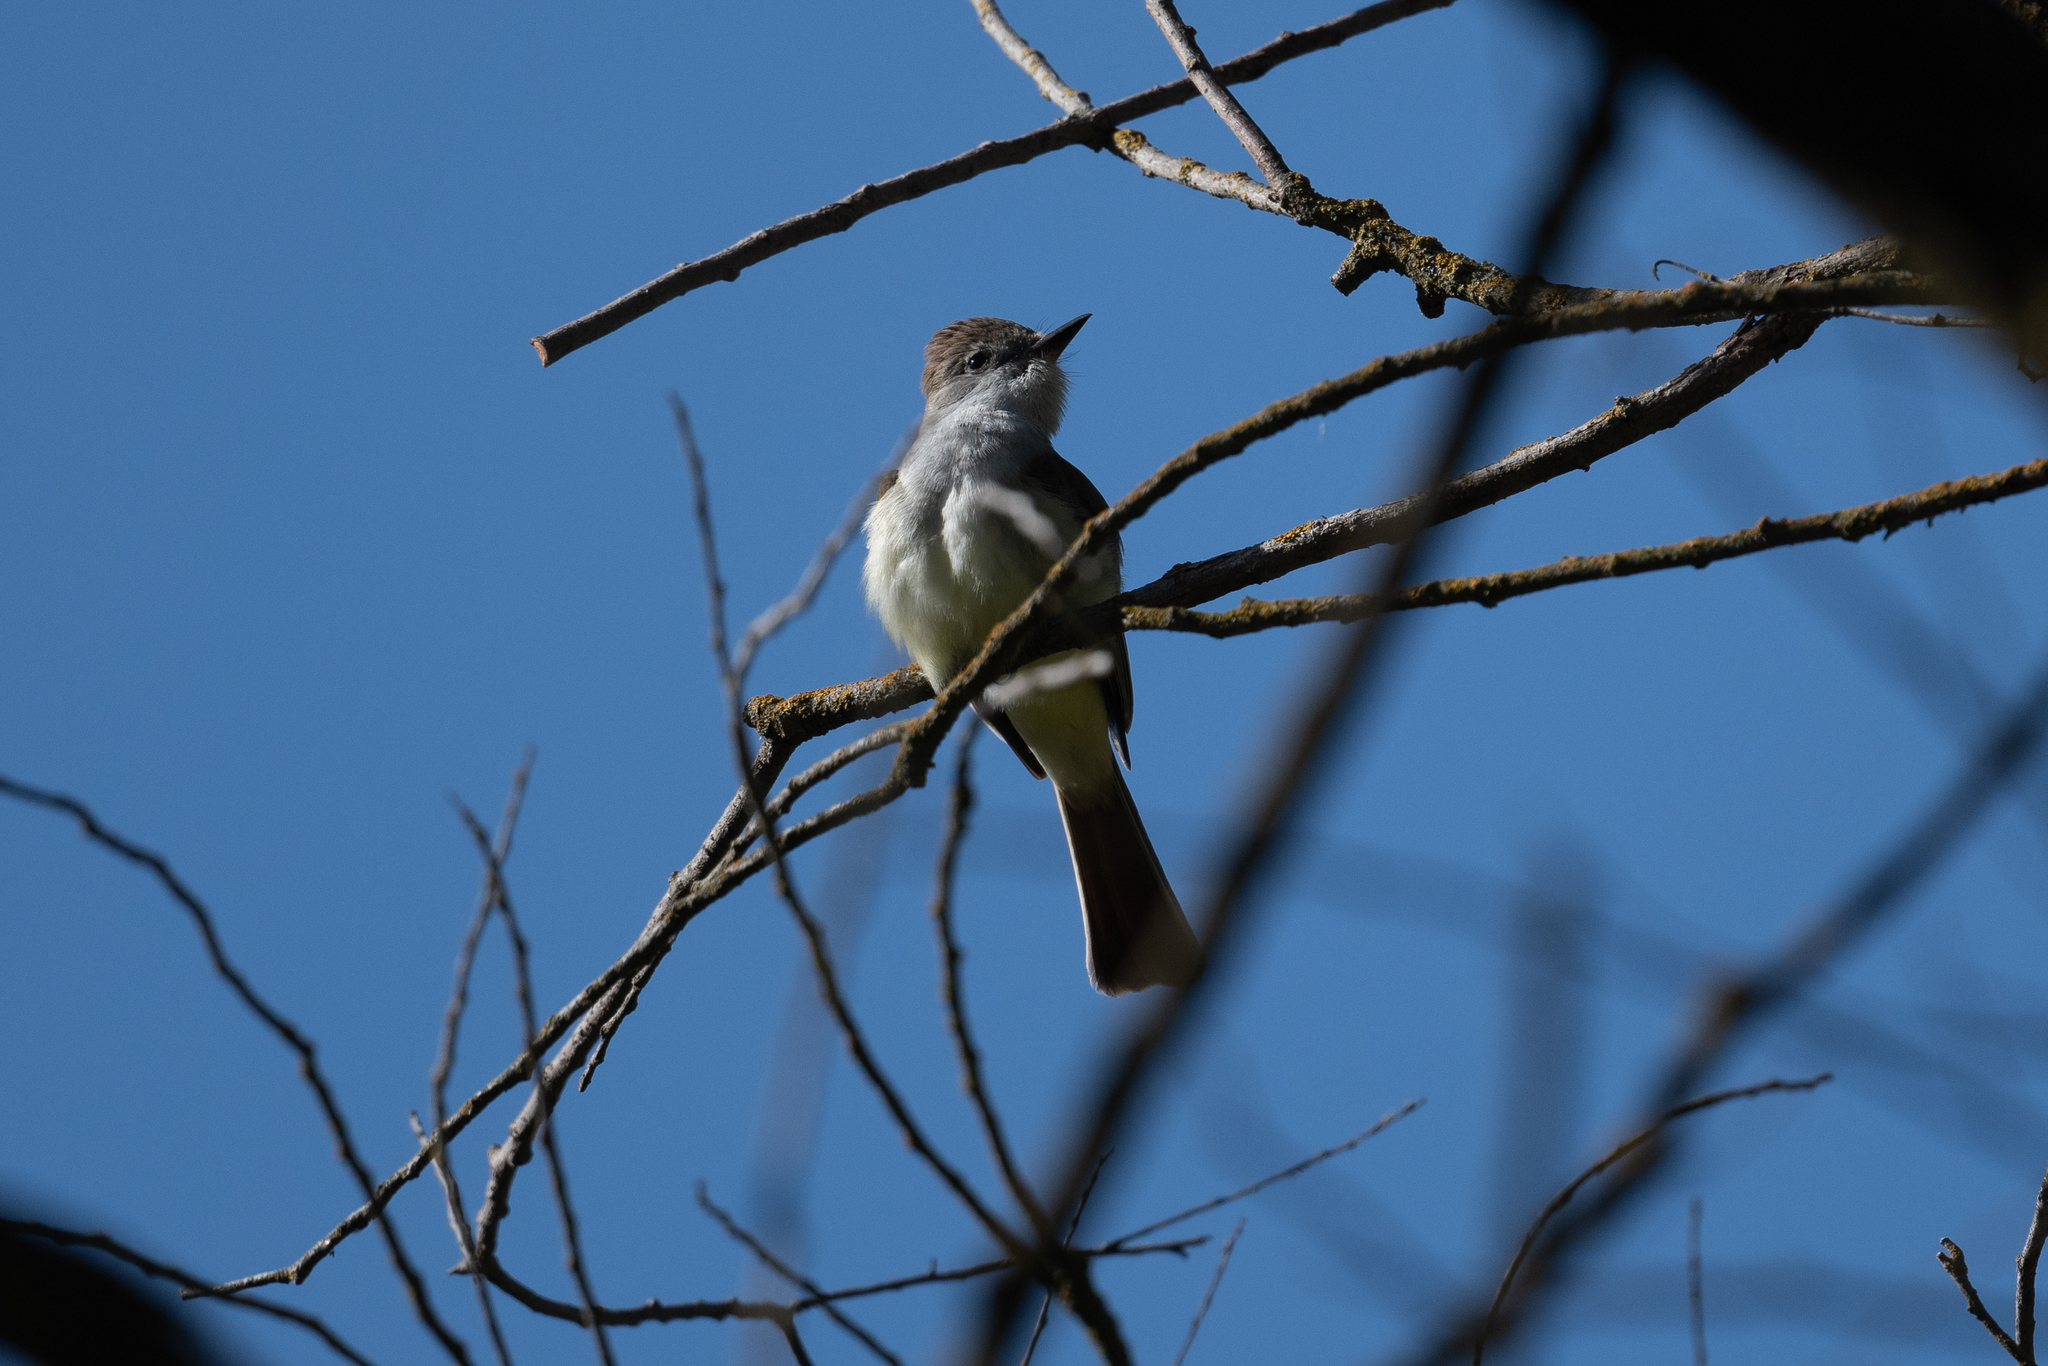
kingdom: Animalia
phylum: Chordata
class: Aves
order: Passeriformes
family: Tyrannidae
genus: Myiarchus
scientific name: Myiarchus cinerascens
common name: Ash-throated flycatcher
